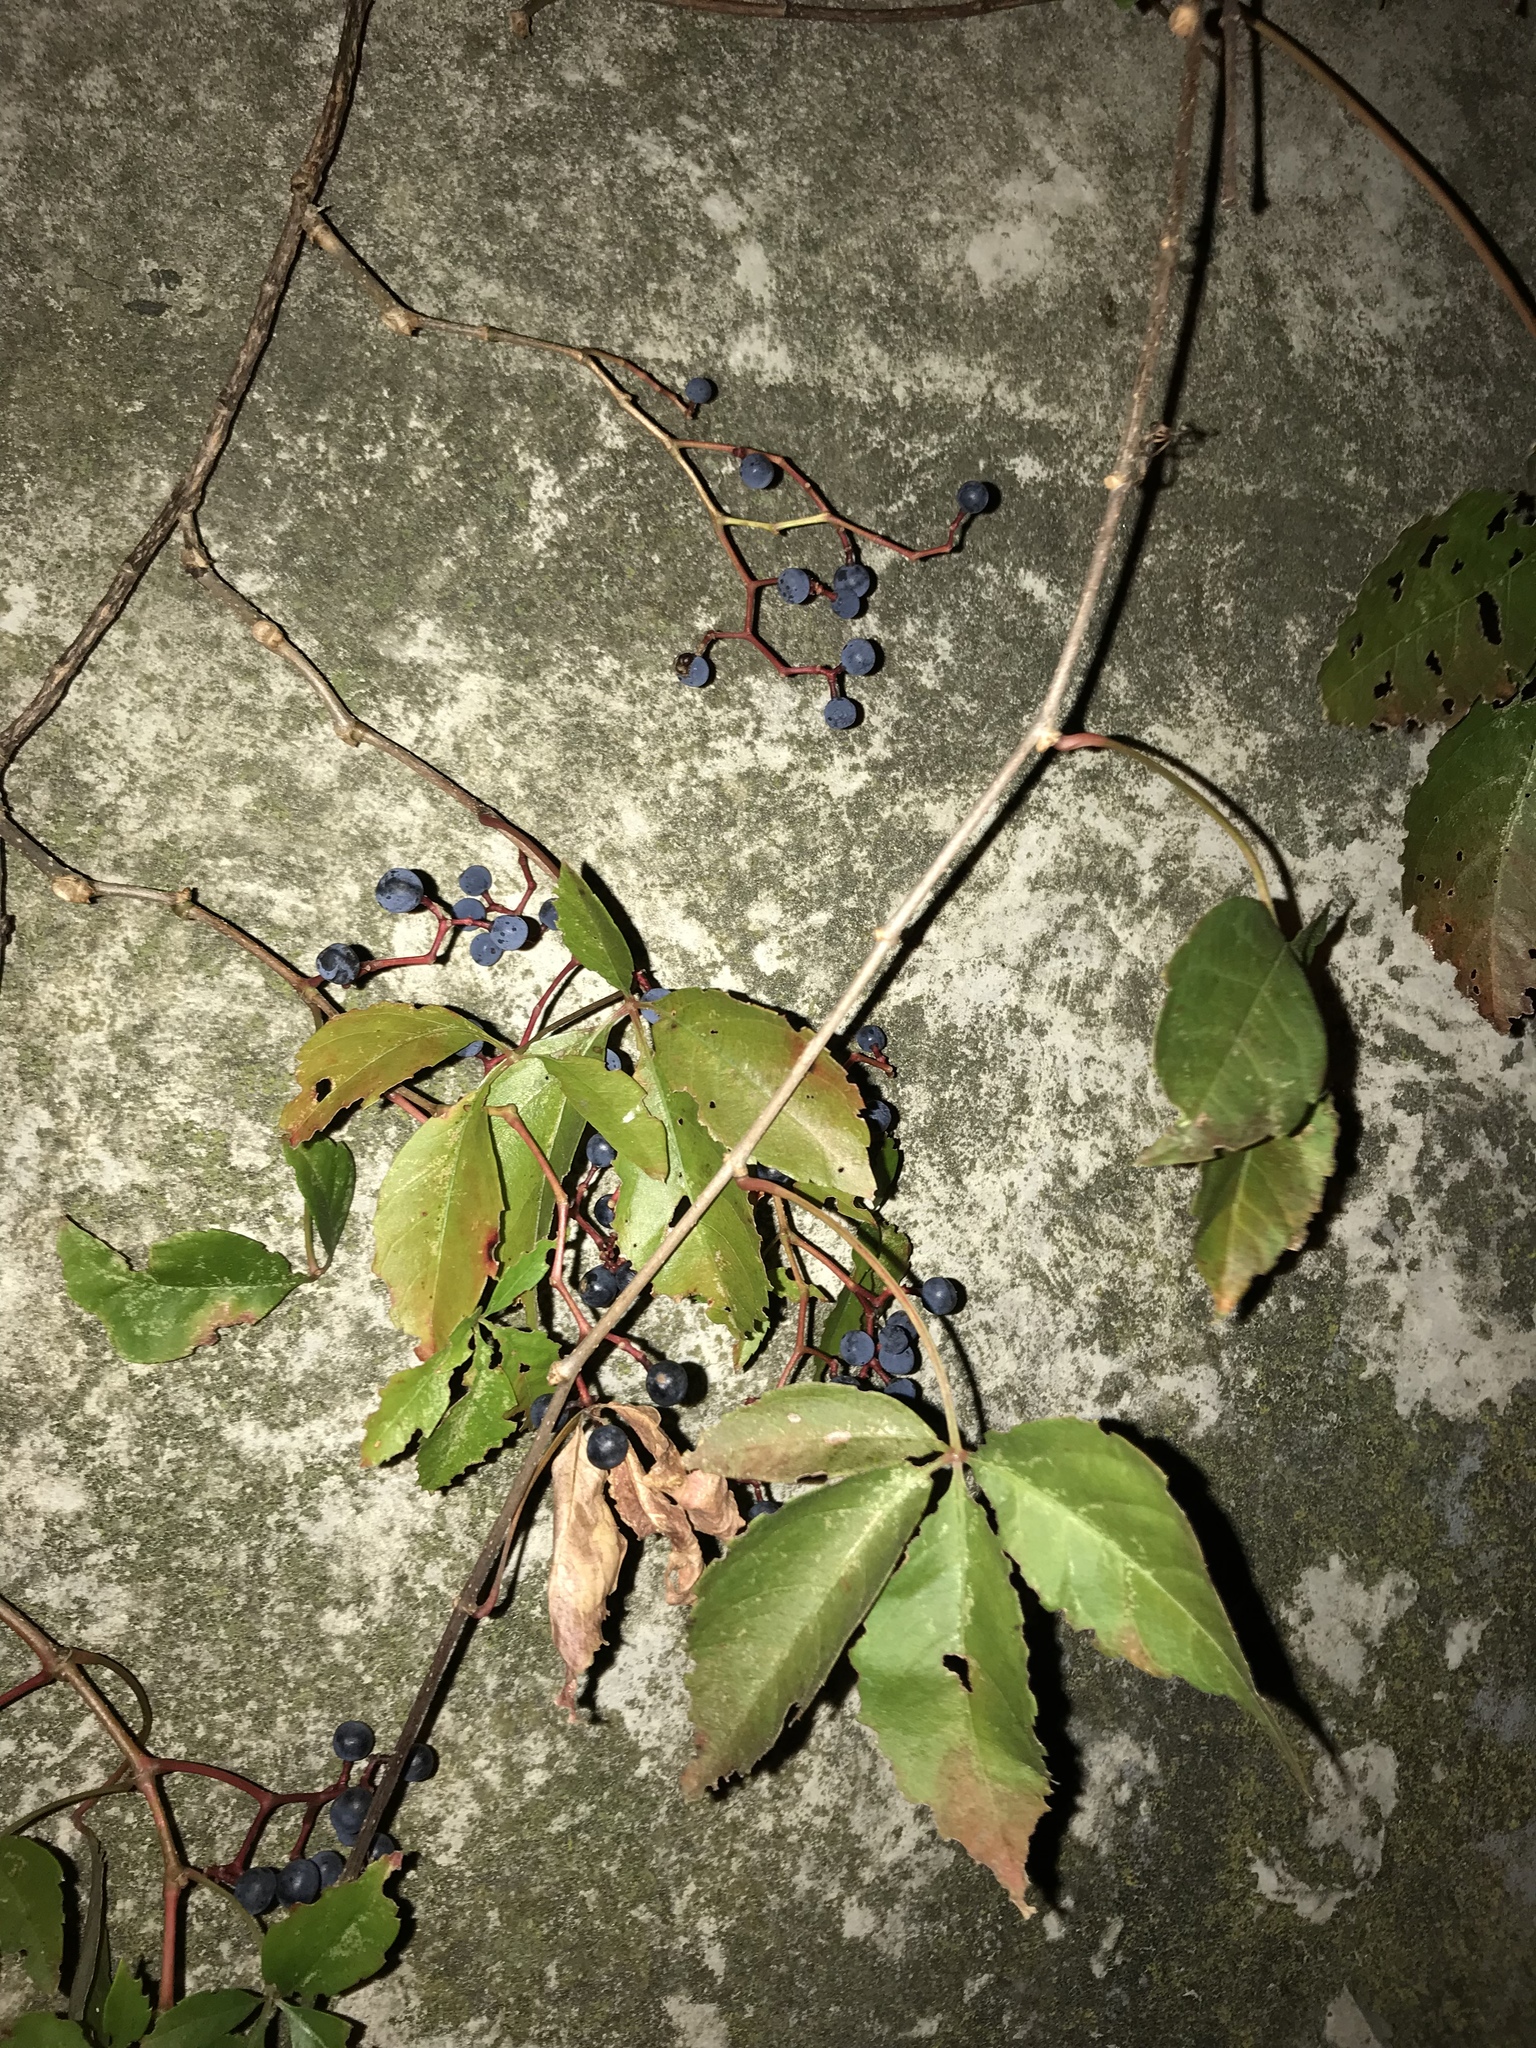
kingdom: Plantae
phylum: Tracheophyta
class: Magnoliopsida
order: Vitales
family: Vitaceae
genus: Parthenocissus
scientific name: Parthenocissus inserta
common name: False virginia-creeper
